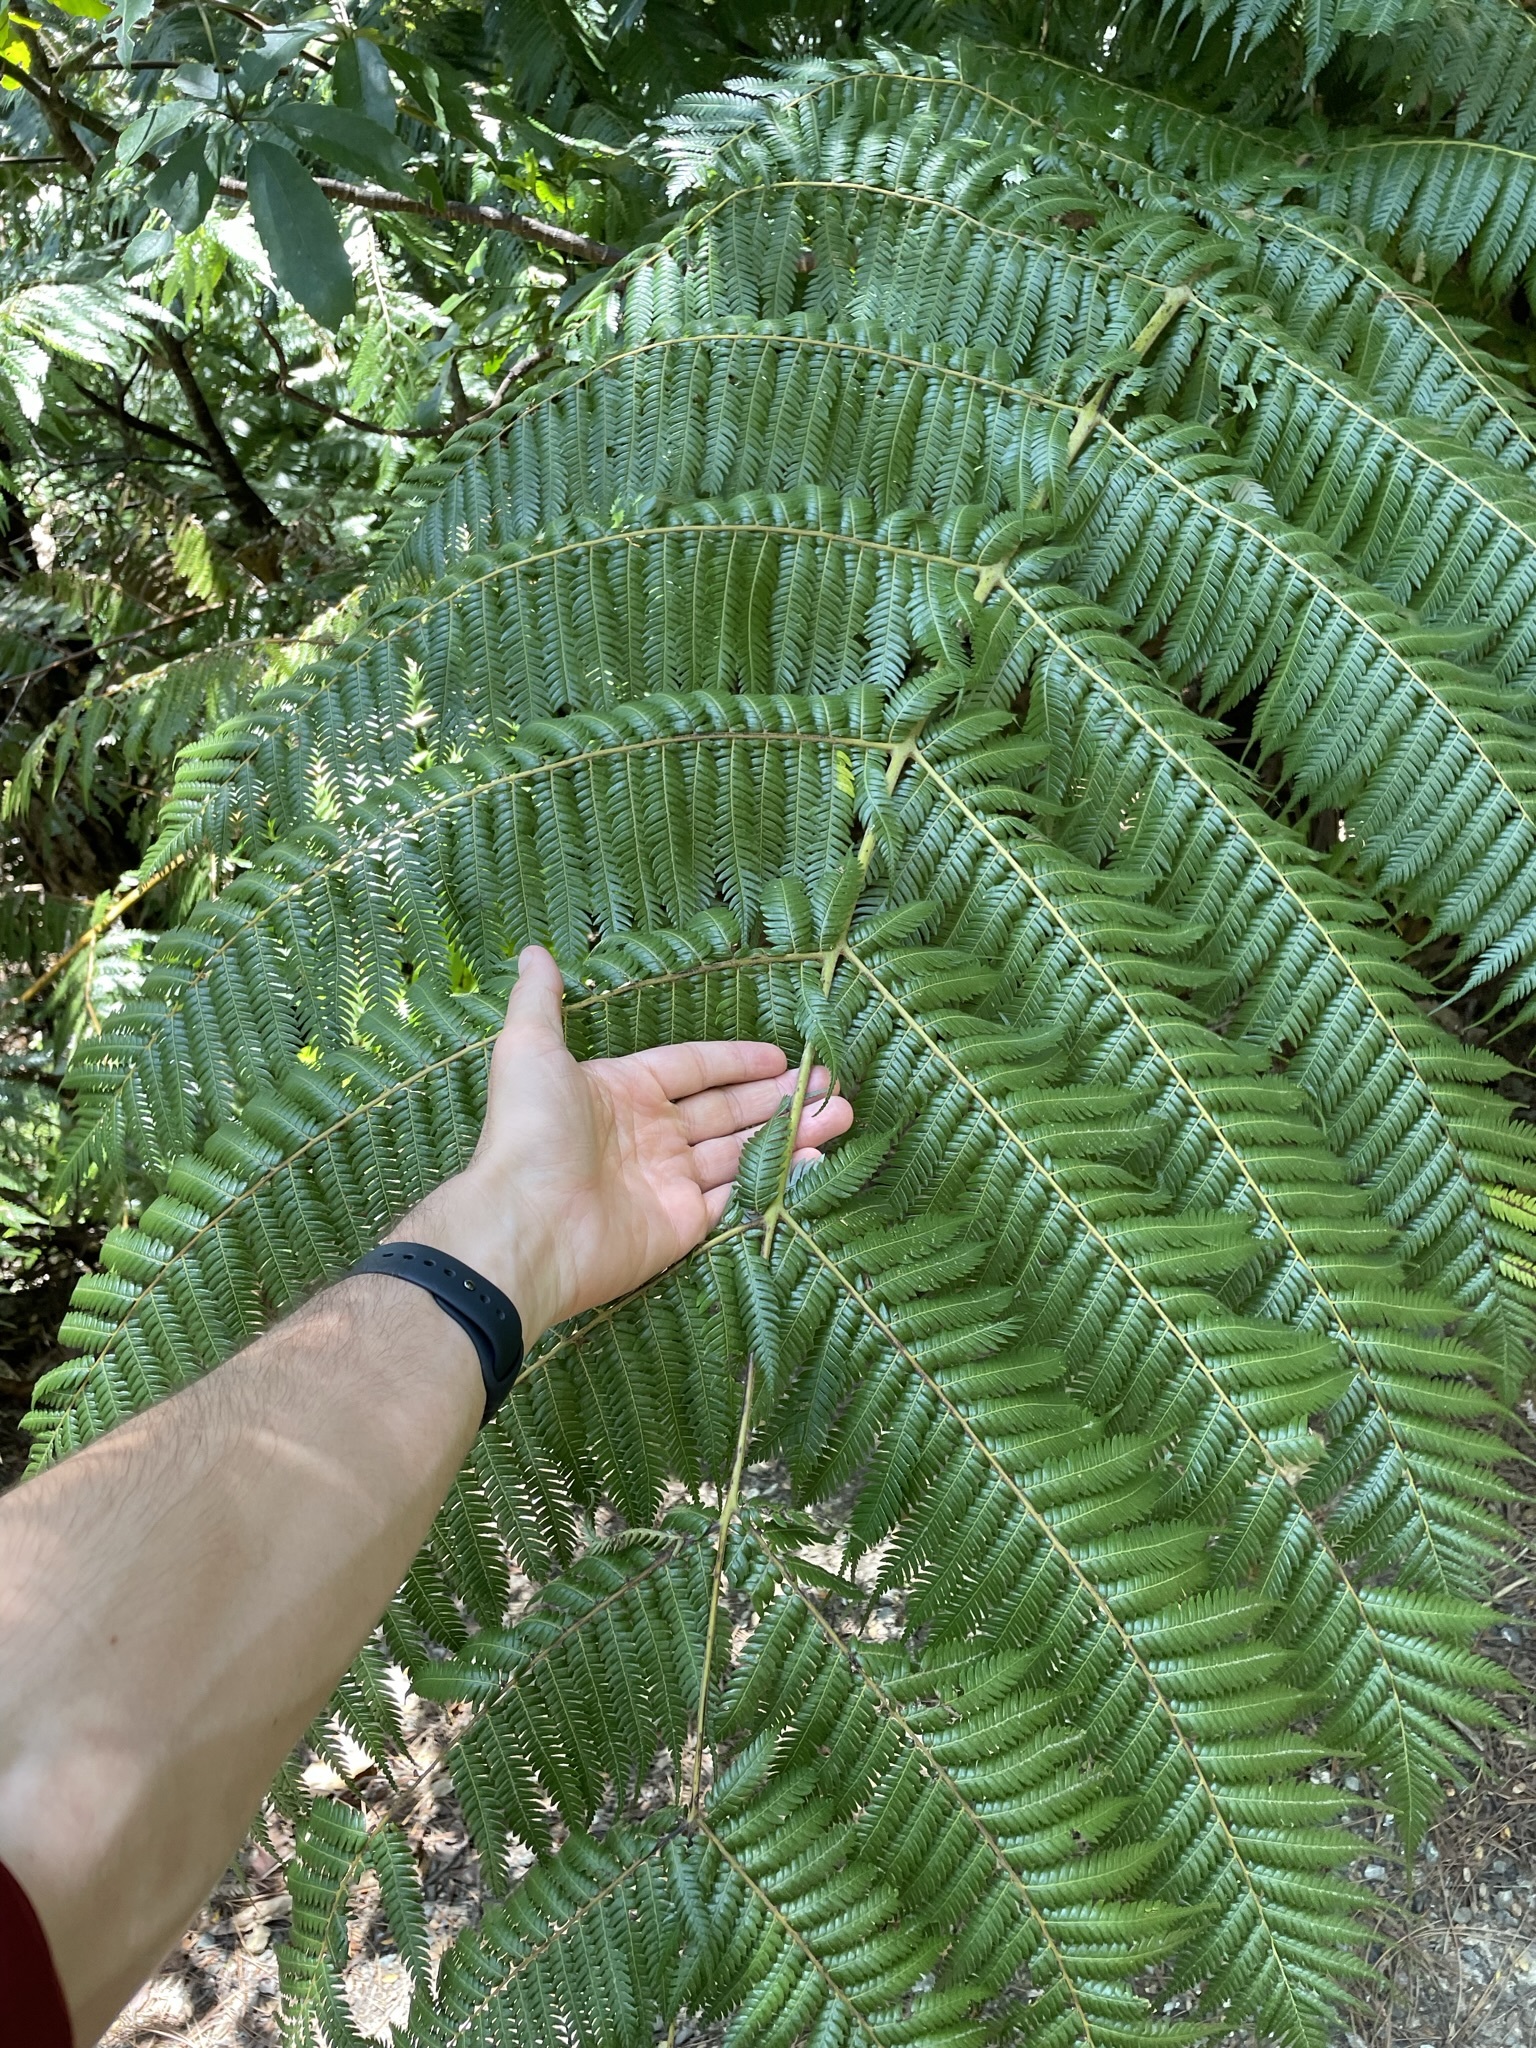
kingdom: Plantae
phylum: Tracheophyta
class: Polypodiopsida
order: Cyatheales
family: Cyatheaceae
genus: Alsophila
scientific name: Alsophila dealbata
